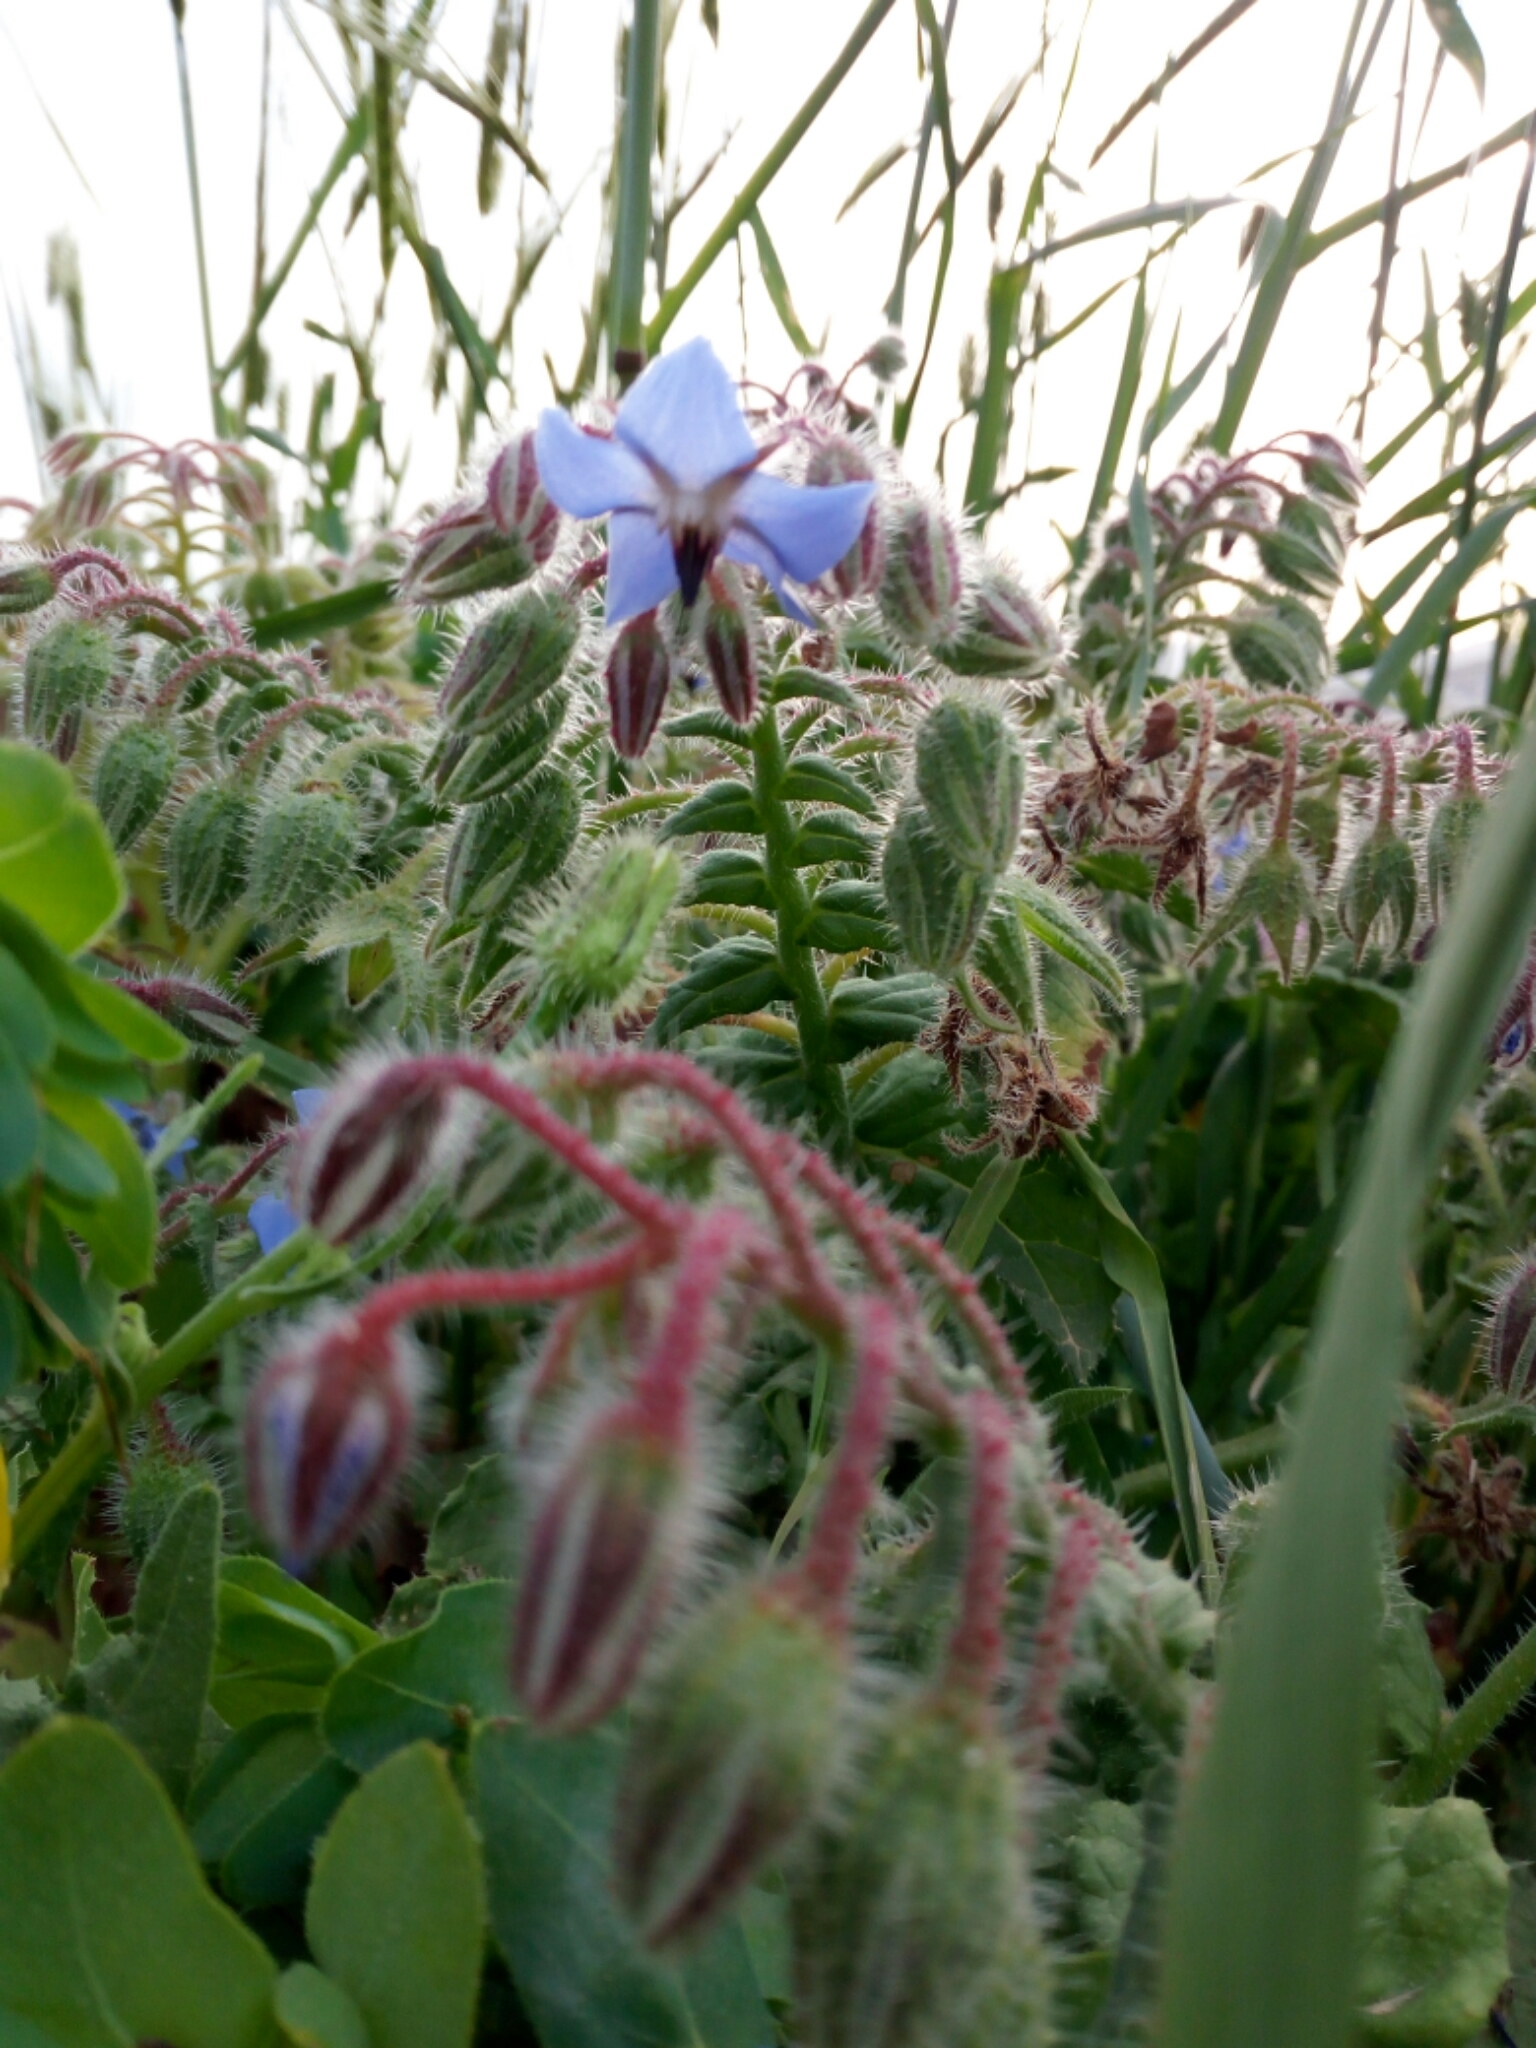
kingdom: Plantae
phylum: Tracheophyta
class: Magnoliopsida
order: Boraginales
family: Boraginaceae
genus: Borago
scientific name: Borago officinalis
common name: Borage
